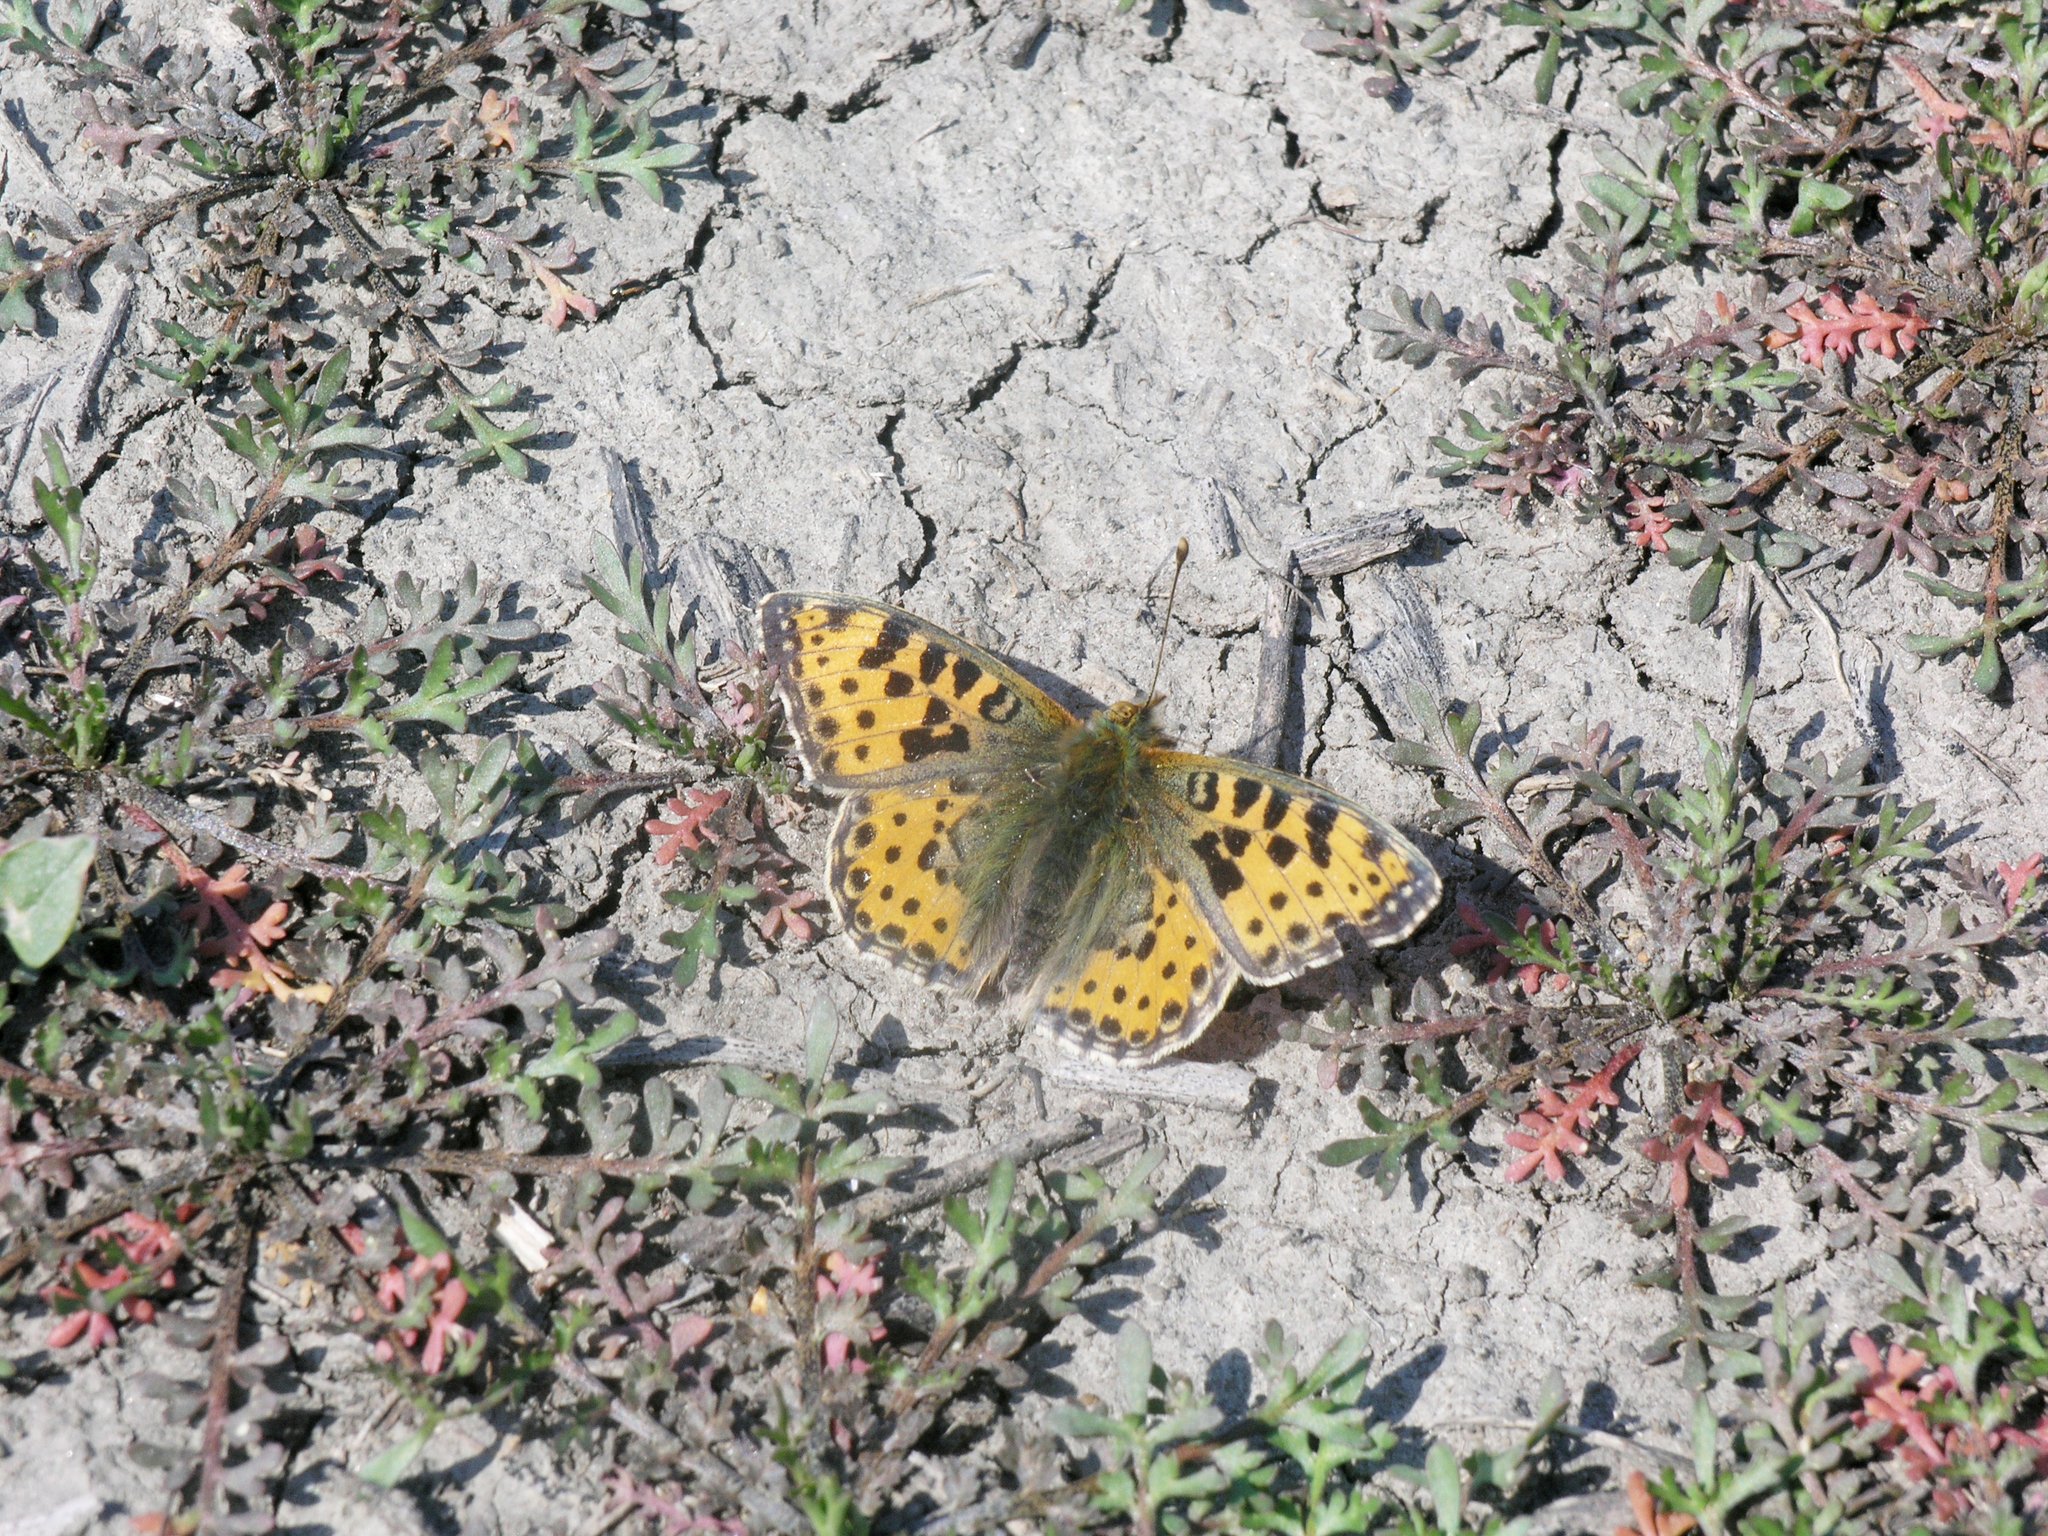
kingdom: Plantae
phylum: Tracheophyta
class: Magnoliopsida
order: Brassicales
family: Brassicaceae
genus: Capsella
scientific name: Capsella bursa-pastoris
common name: Shepherd's purse
